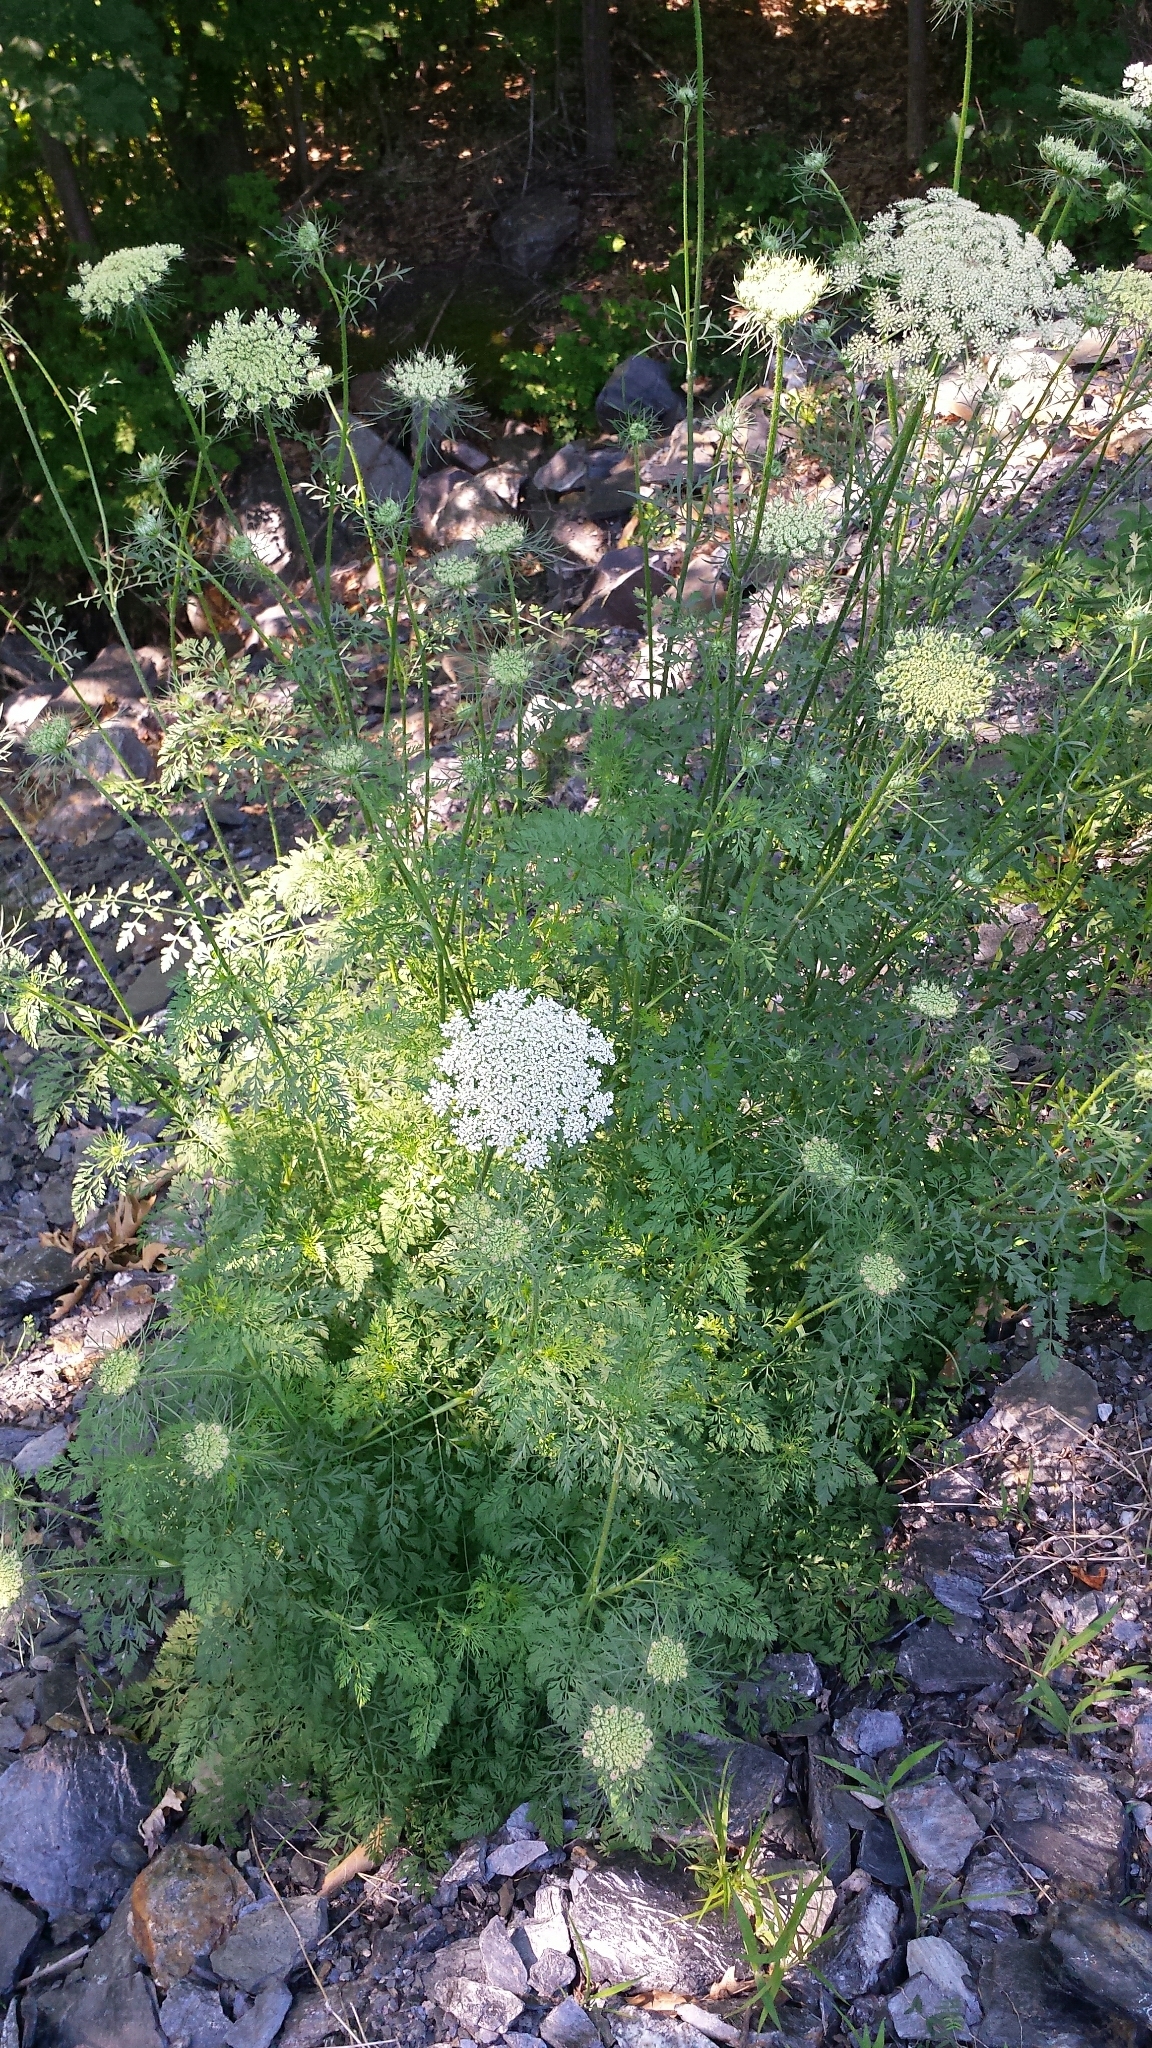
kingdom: Plantae
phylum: Tracheophyta
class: Magnoliopsida
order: Apiales
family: Apiaceae
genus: Daucus
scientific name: Daucus carota
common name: Wild carrot
